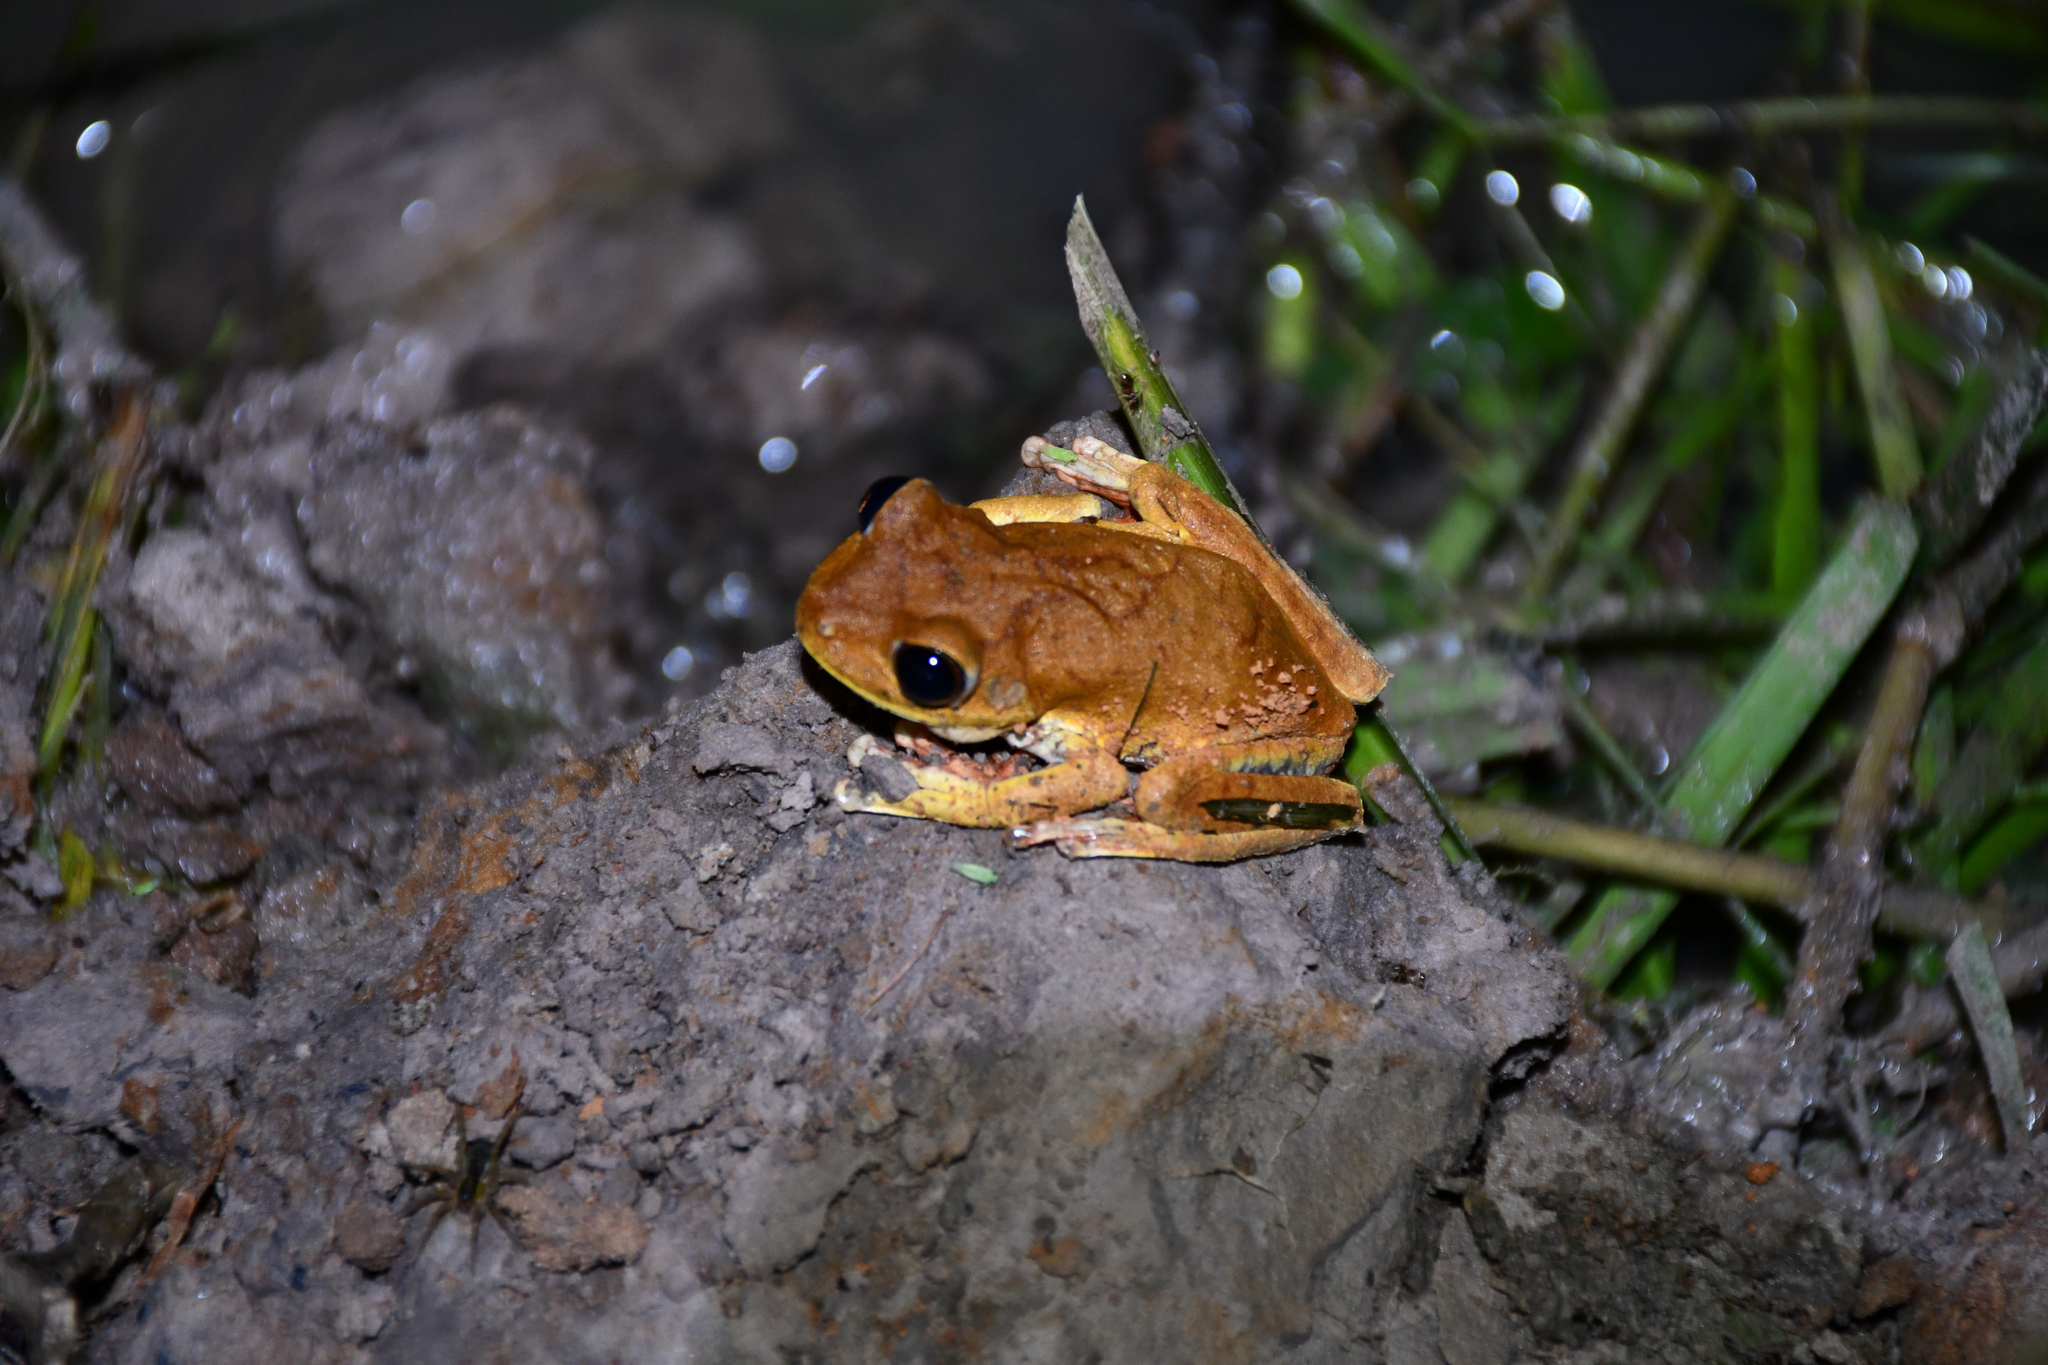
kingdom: Animalia
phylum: Chordata
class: Amphibia
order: Anura
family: Hylidae
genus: Boana
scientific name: Boana geographica
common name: Map treefrog
